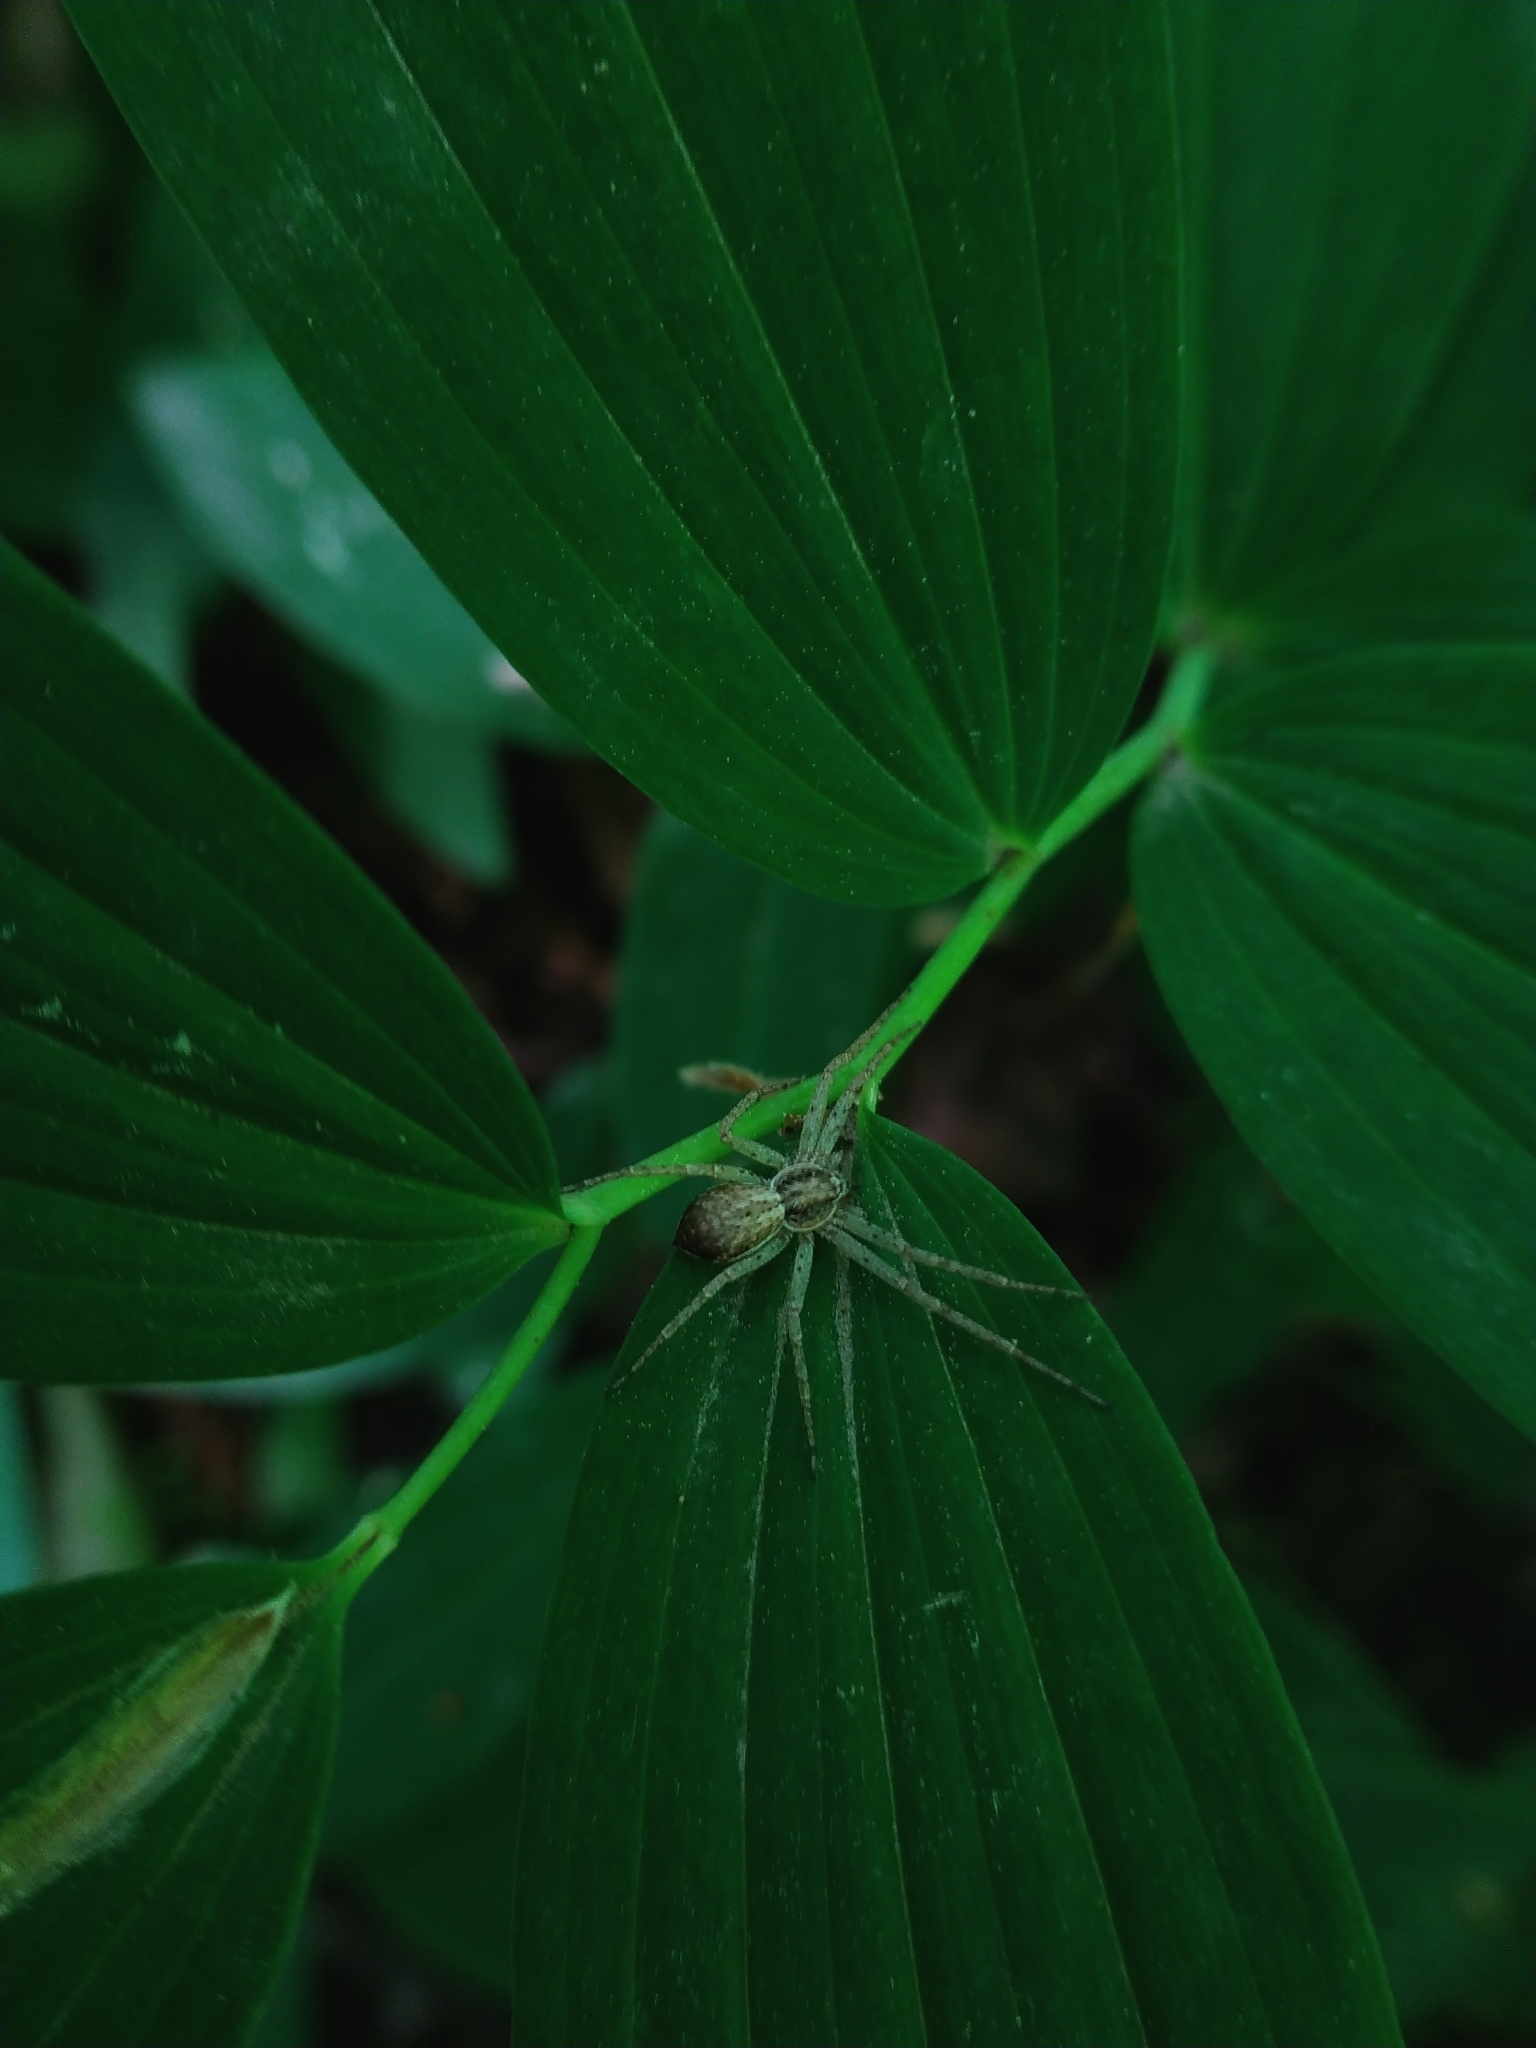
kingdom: Animalia
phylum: Arthropoda
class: Arachnida
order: Araneae
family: Philodromidae
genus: Philodromus
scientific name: Philodromus dispar
